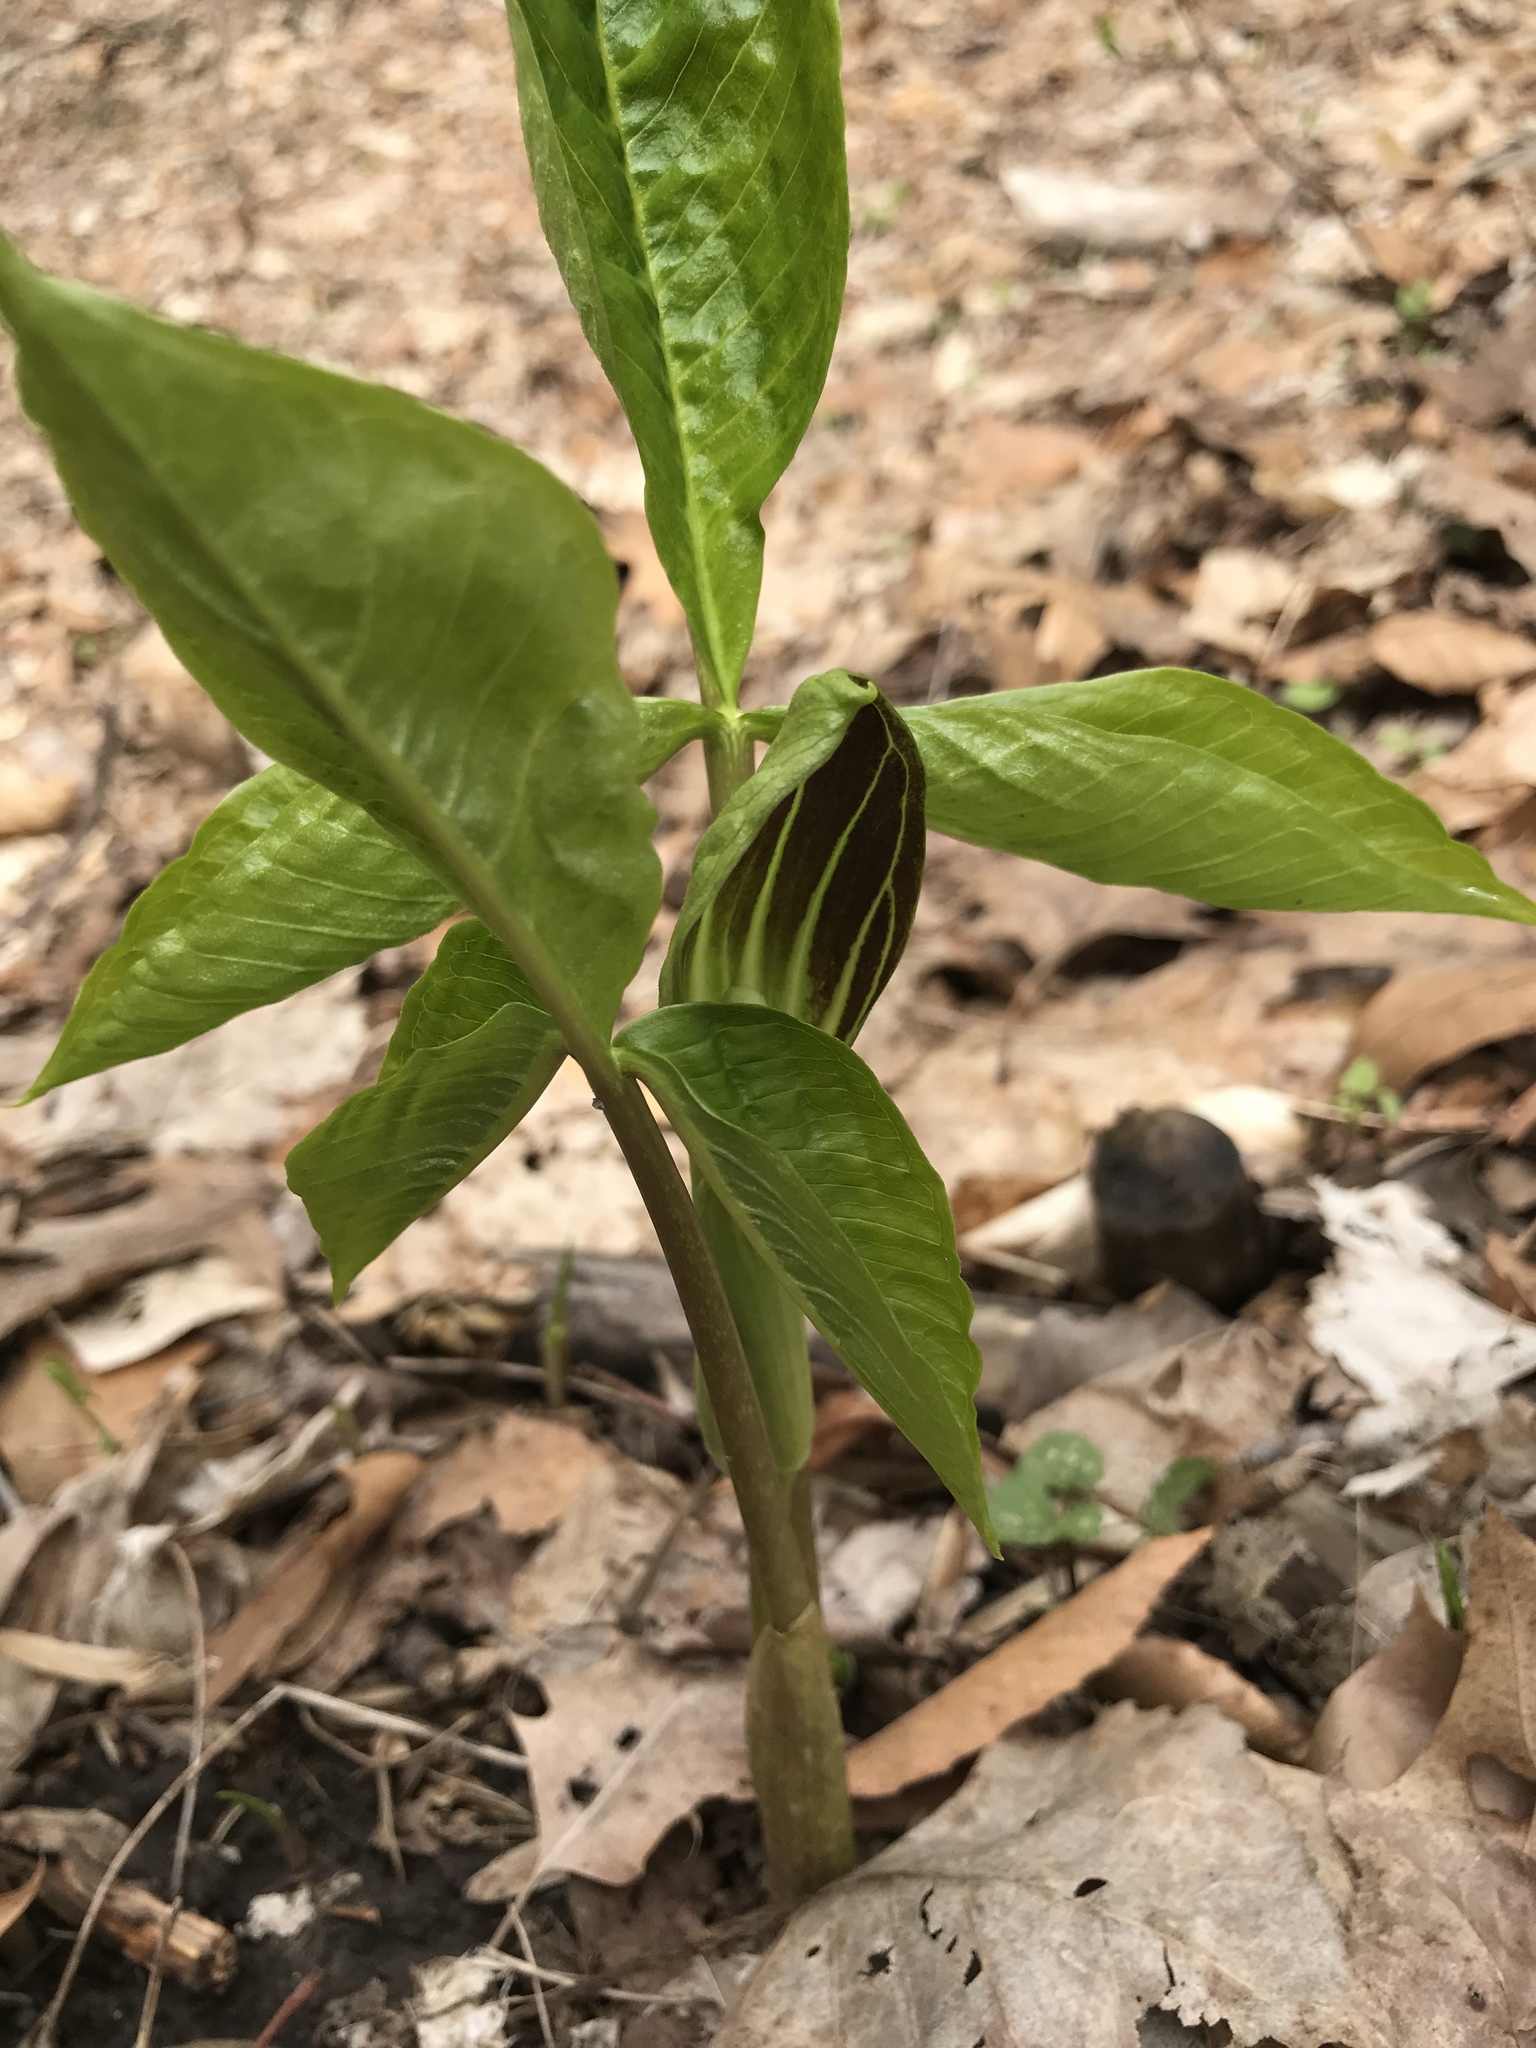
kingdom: Plantae
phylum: Tracheophyta
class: Liliopsida
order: Alismatales
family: Araceae
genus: Arisaema
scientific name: Arisaema triphyllum
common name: Jack-in-the-pulpit
